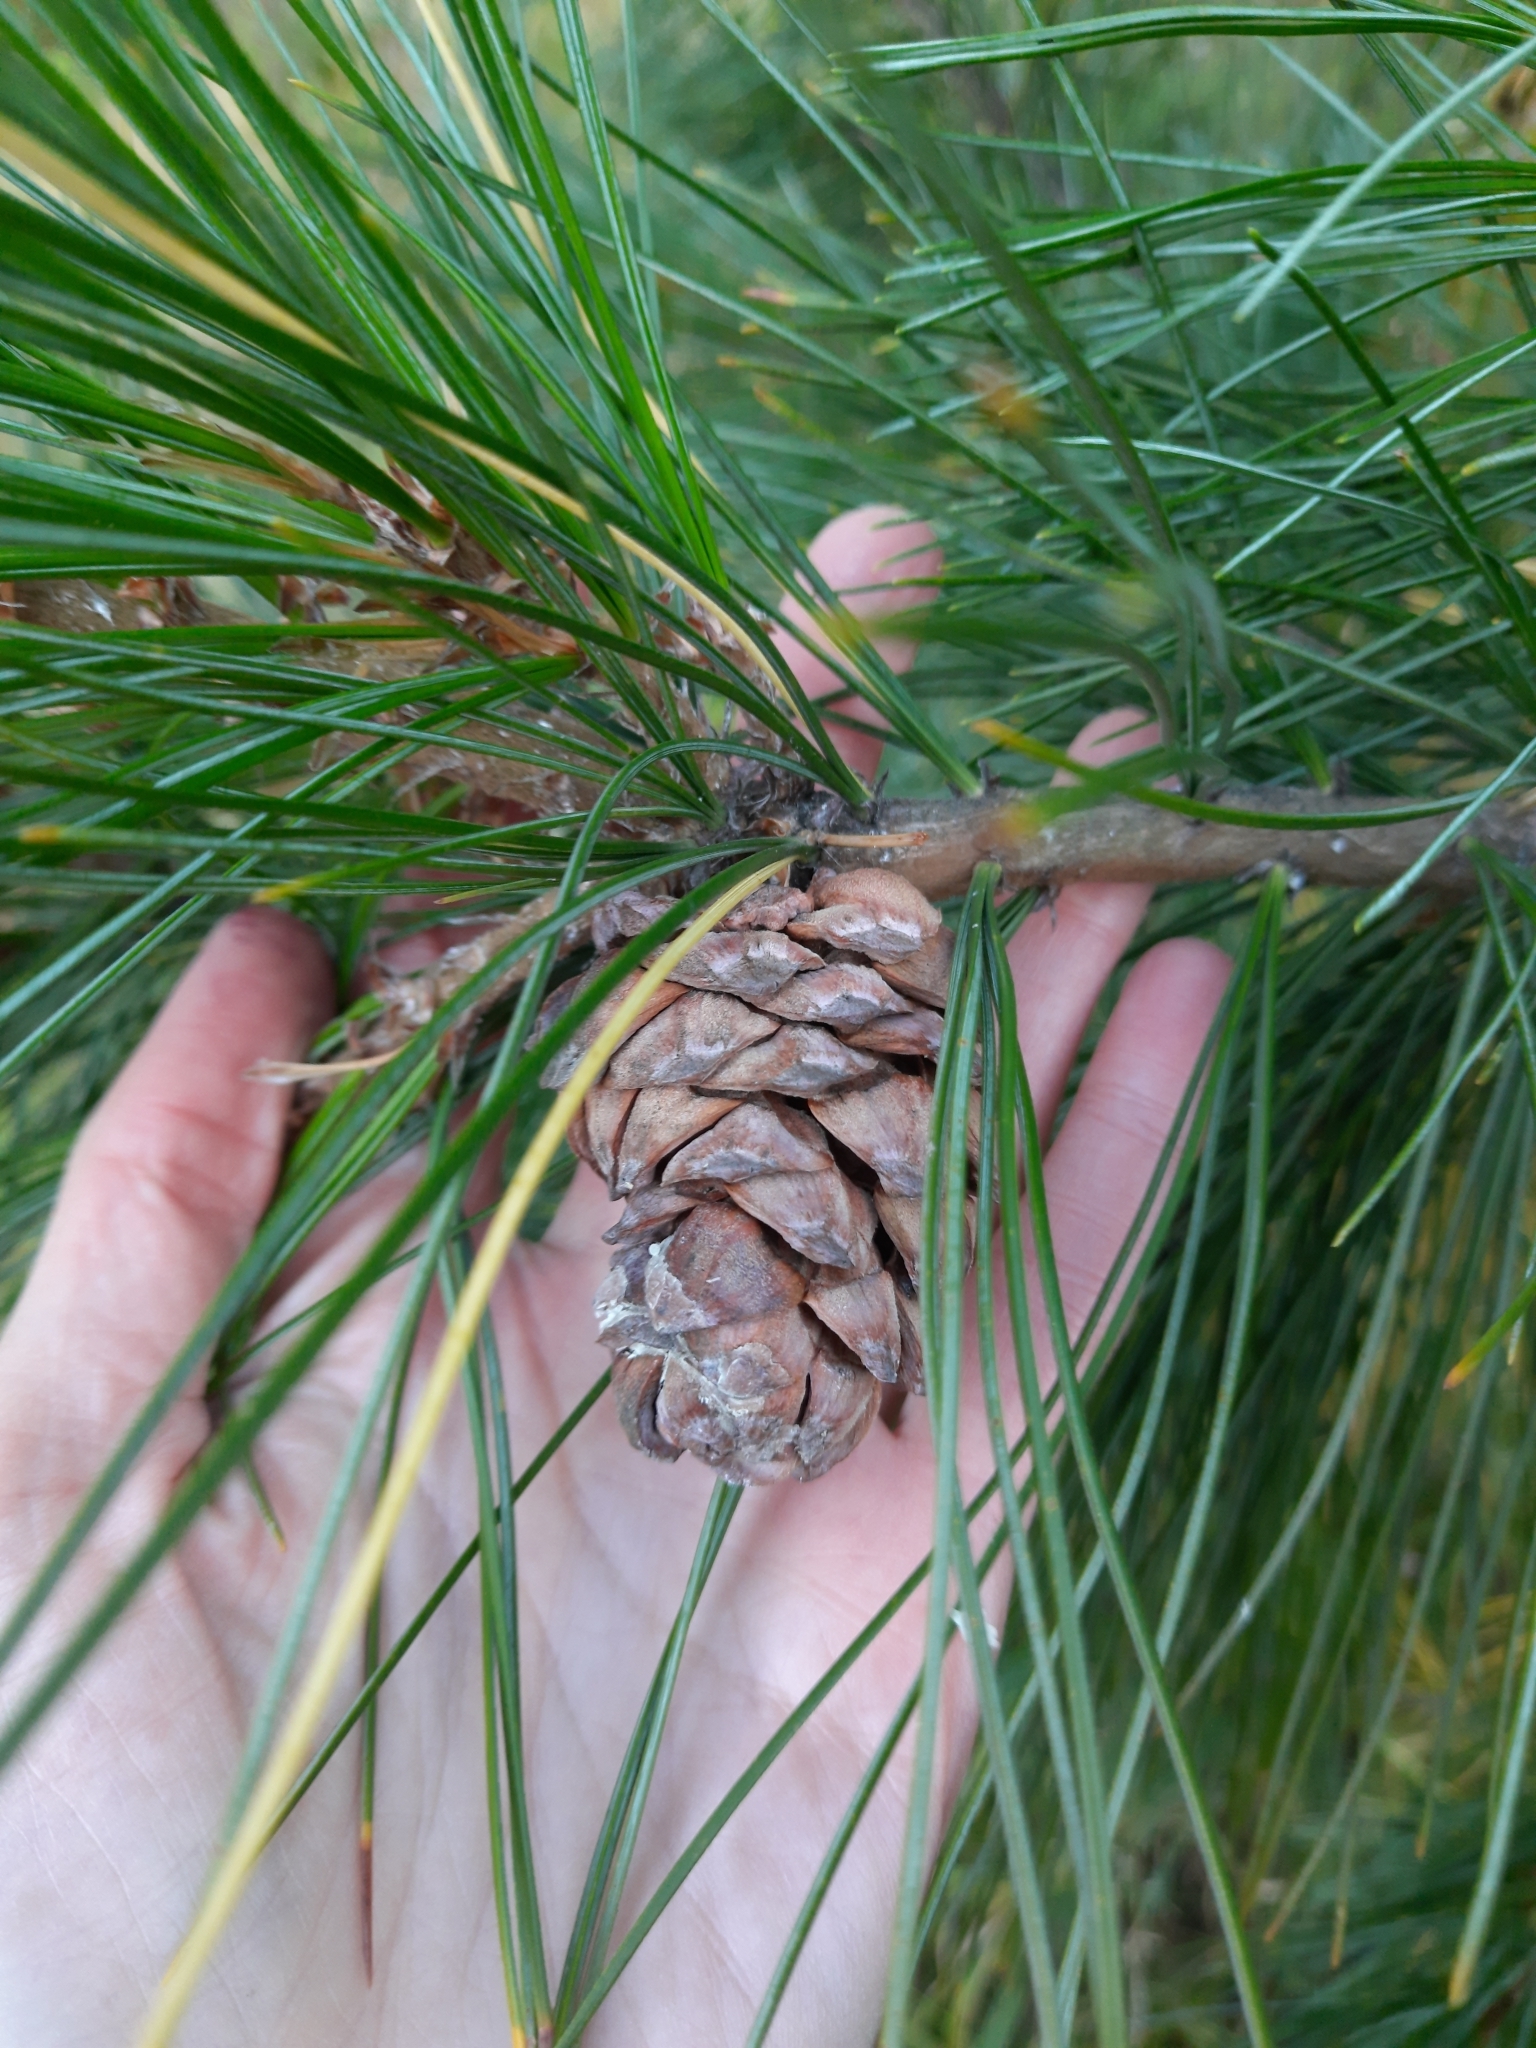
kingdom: Plantae
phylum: Tracheophyta
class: Pinopsida
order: Pinales
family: Pinaceae
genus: Pinus
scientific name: Pinus sibirica
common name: Siberian pine
